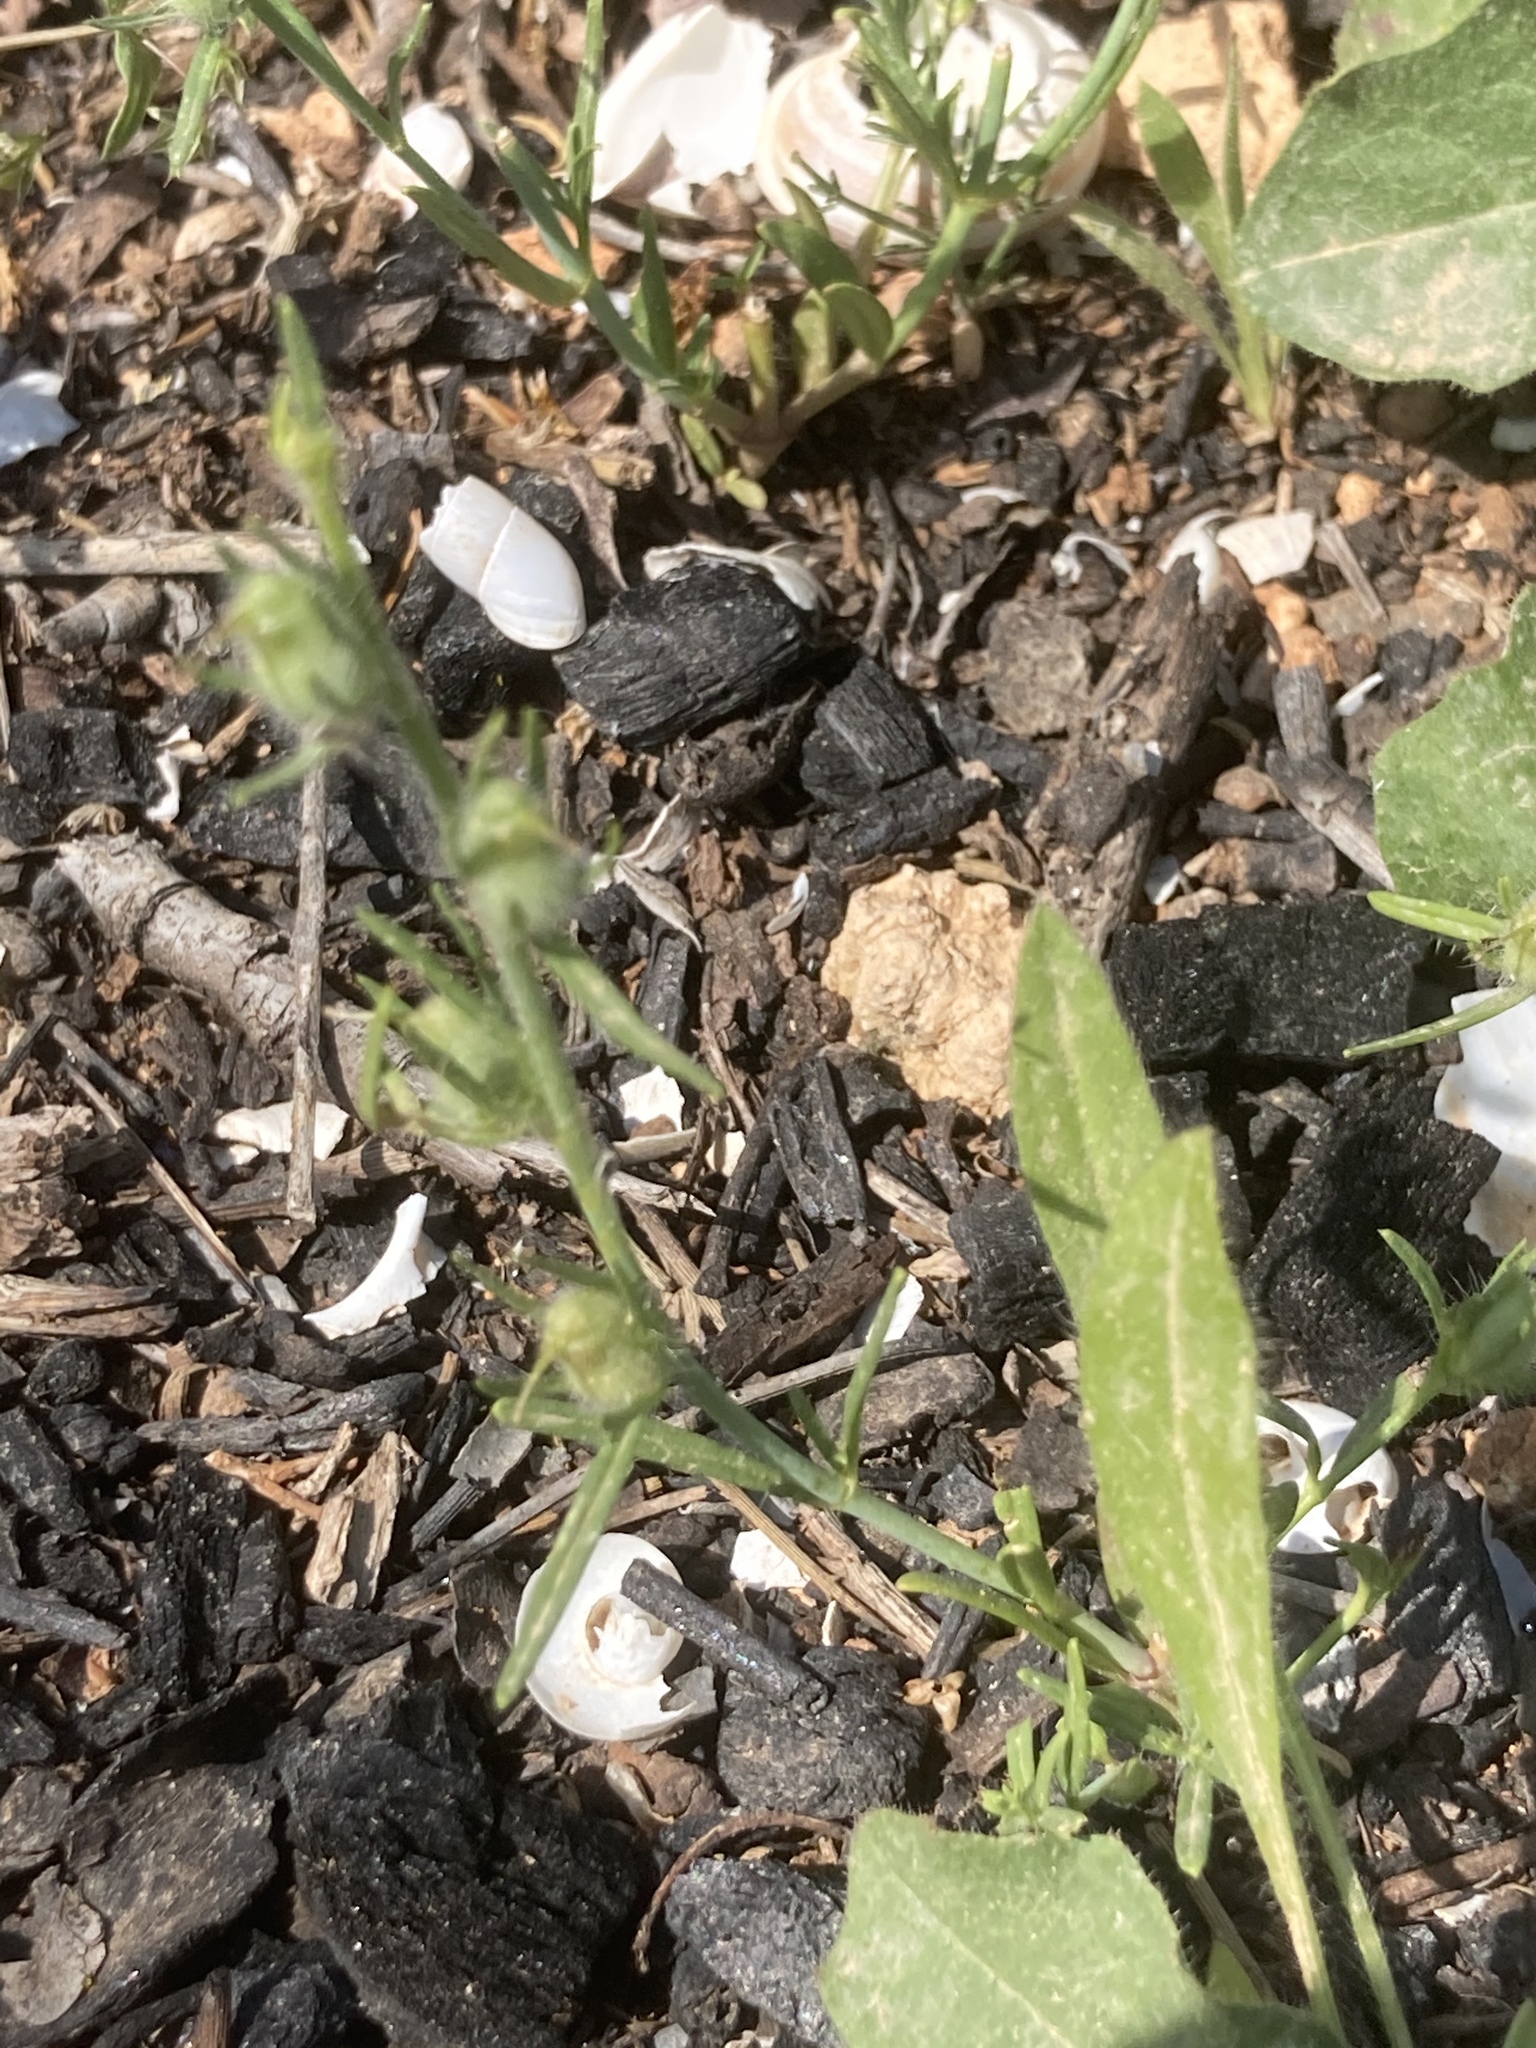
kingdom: Plantae
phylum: Tracheophyta
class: Magnoliopsida
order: Lamiales
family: Plantaginaceae
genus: Misopates
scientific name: Misopates orontium
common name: Weasel's-snout
